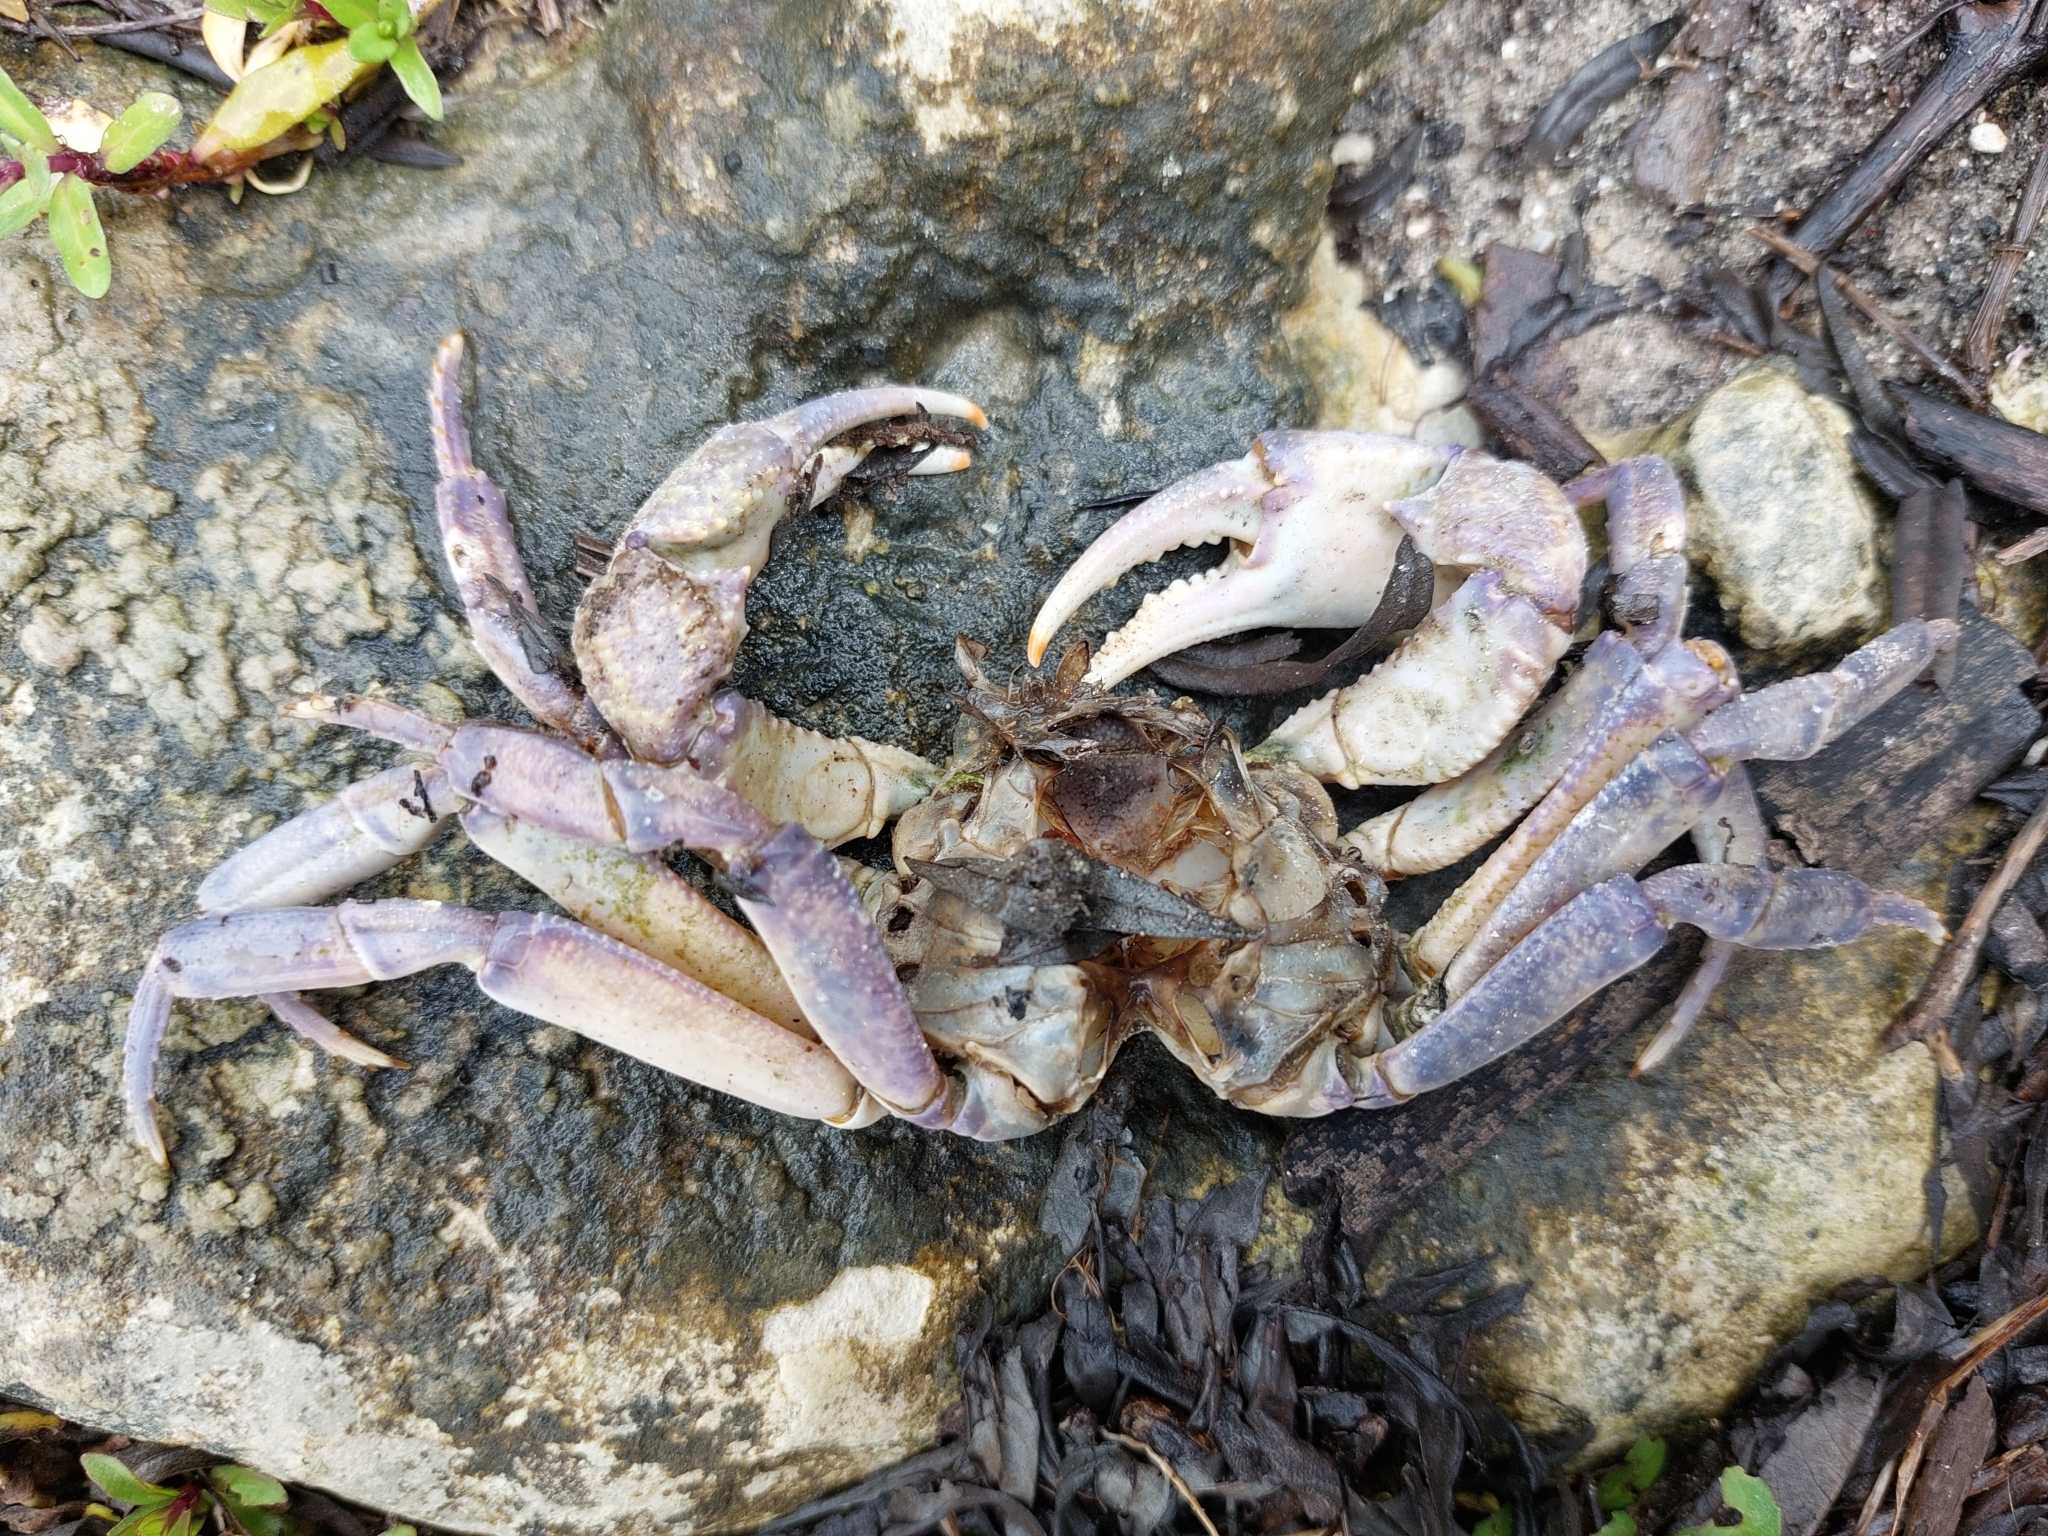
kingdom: Animalia
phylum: Arthropoda
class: Malacostraca
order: Decapoda
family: Potamidae
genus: Potamon
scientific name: Potamon
